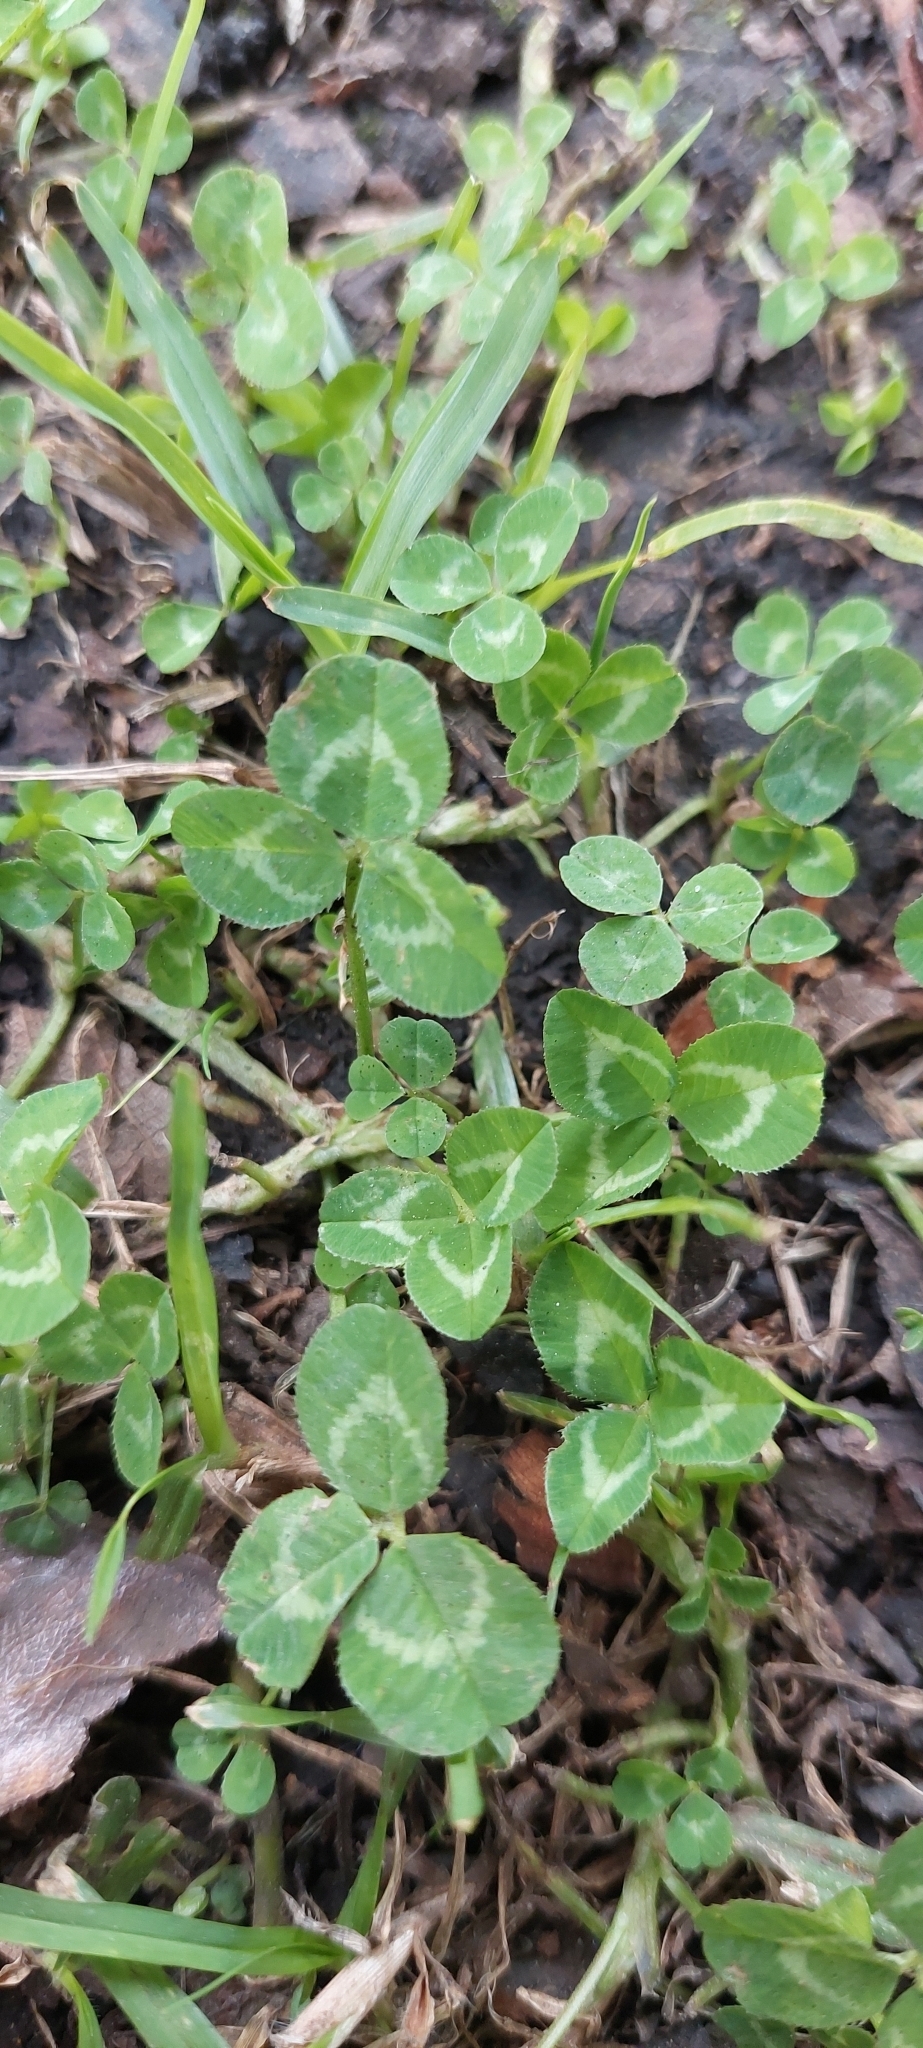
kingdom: Plantae
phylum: Tracheophyta
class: Magnoliopsida
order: Fabales
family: Fabaceae
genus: Trifolium
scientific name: Trifolium repens
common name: White clover
